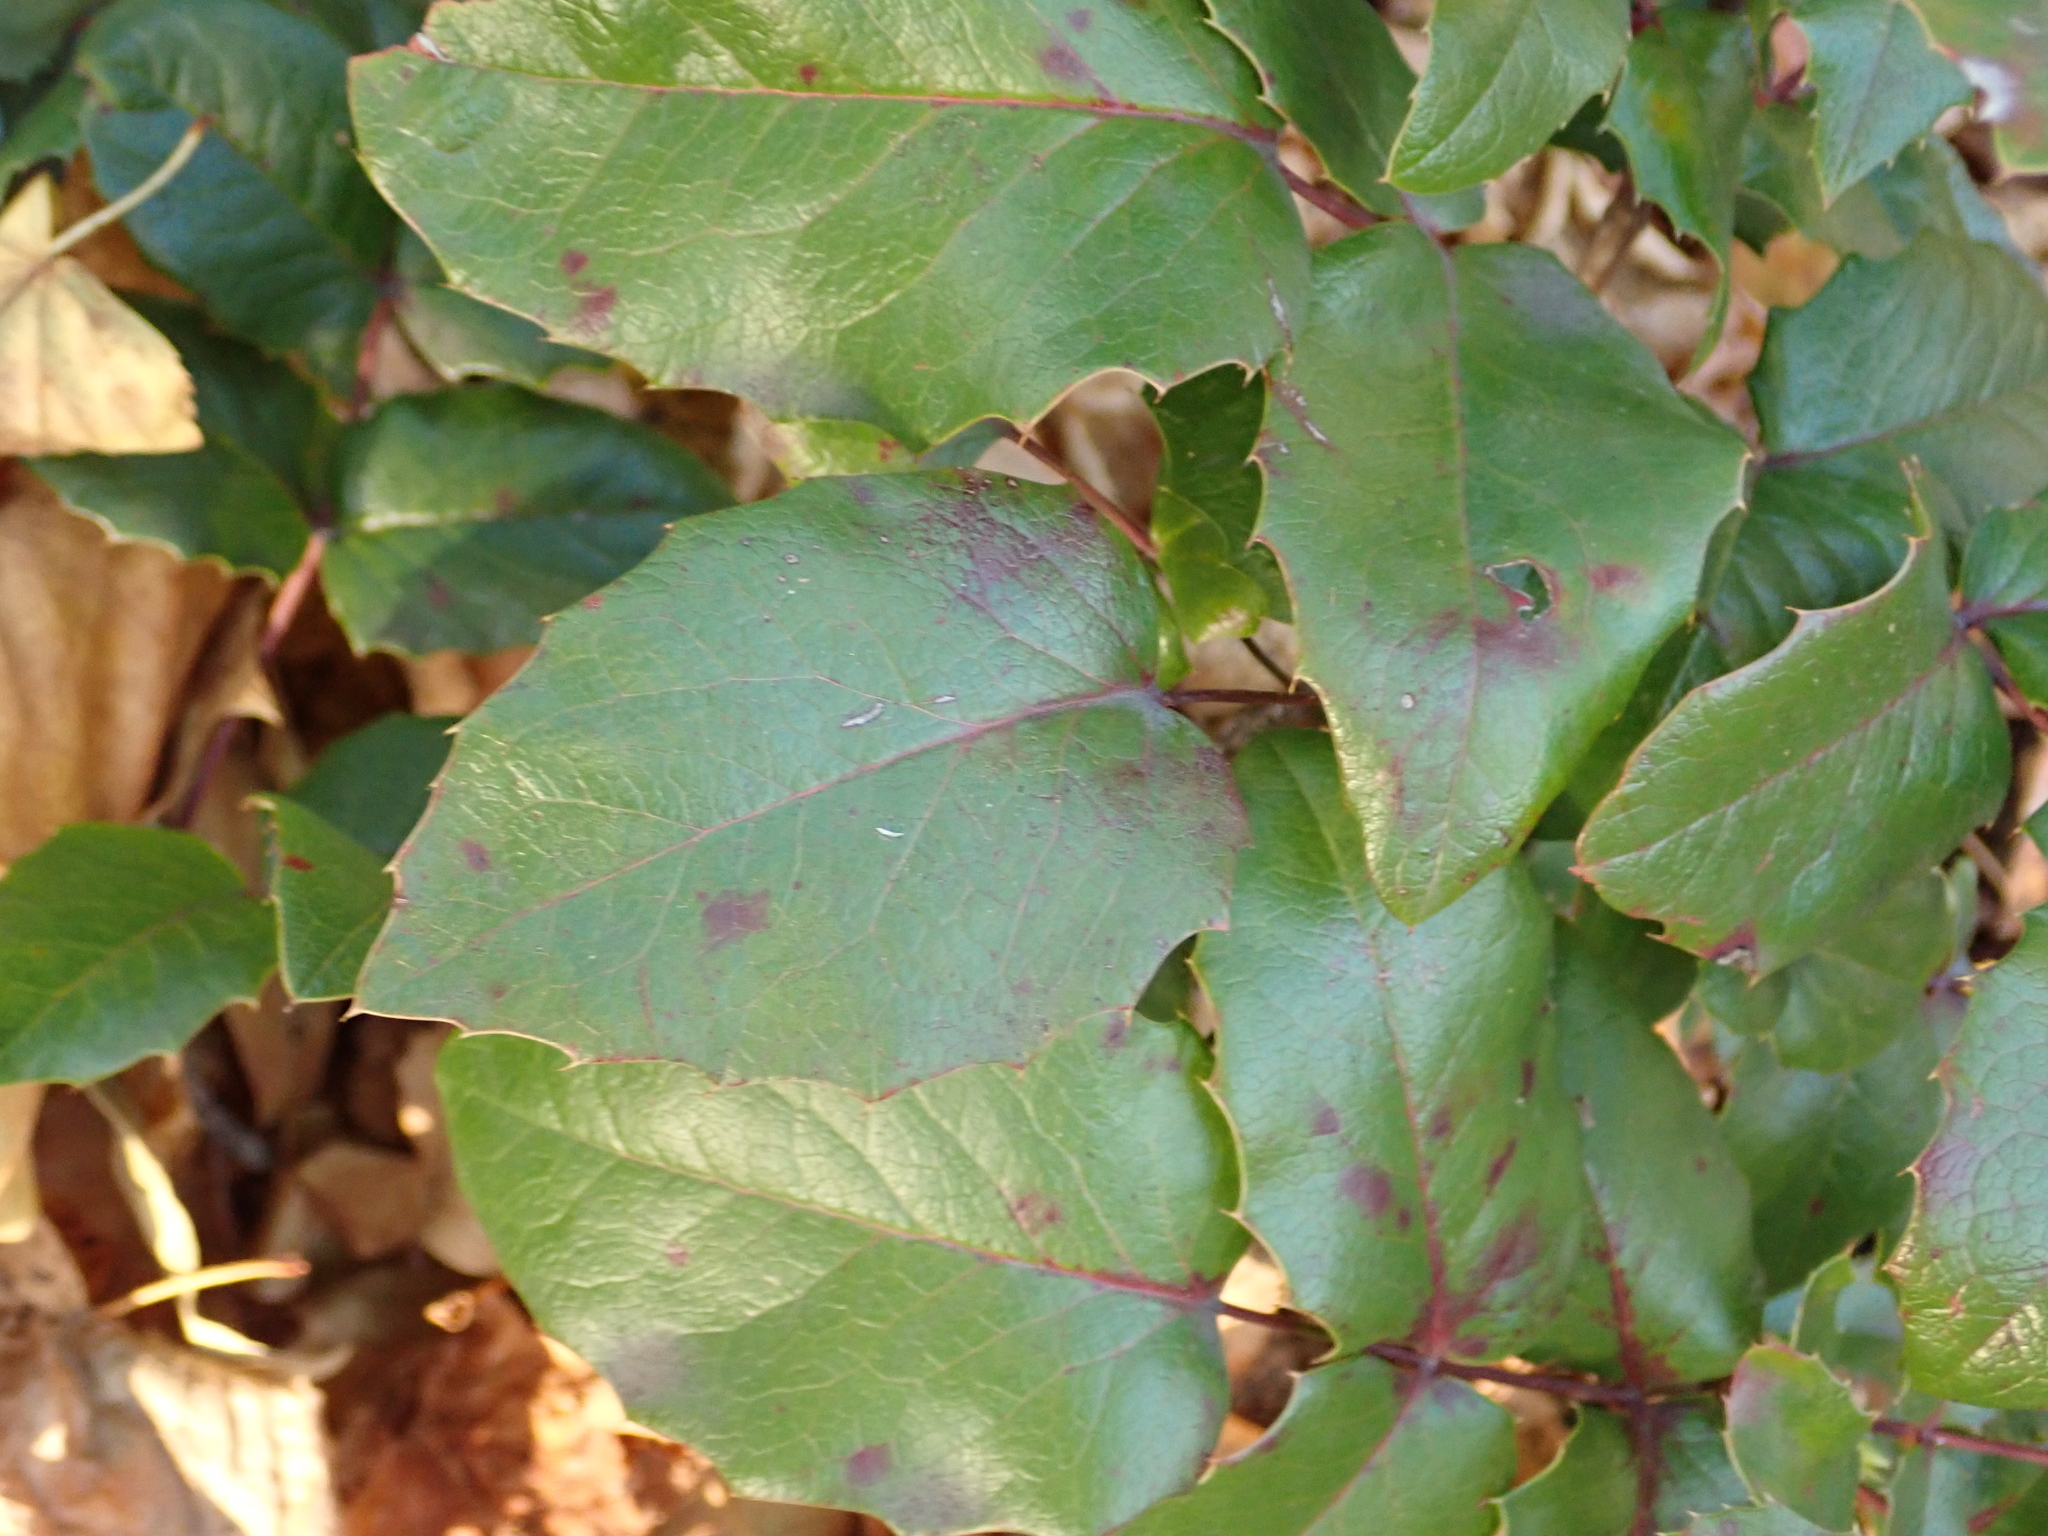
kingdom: Plantae
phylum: Tracheophyta
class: Magnoliopsida
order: Ranunculales
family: Berberidaceae
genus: Mahonia
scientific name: Mahonia aquifolium
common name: Oregon-grape
